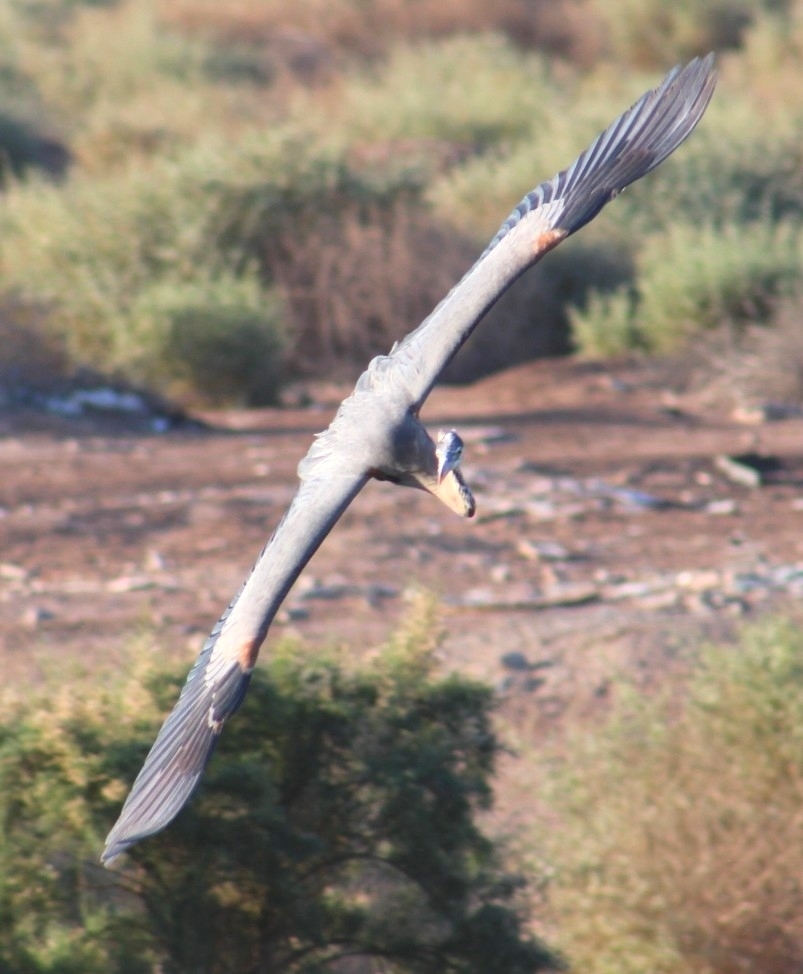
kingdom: Animalia
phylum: Chordata
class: Aves
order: Pelecaniformes
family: Ardeidae
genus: Ardea
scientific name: Ardea herodias
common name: Great blue heron
